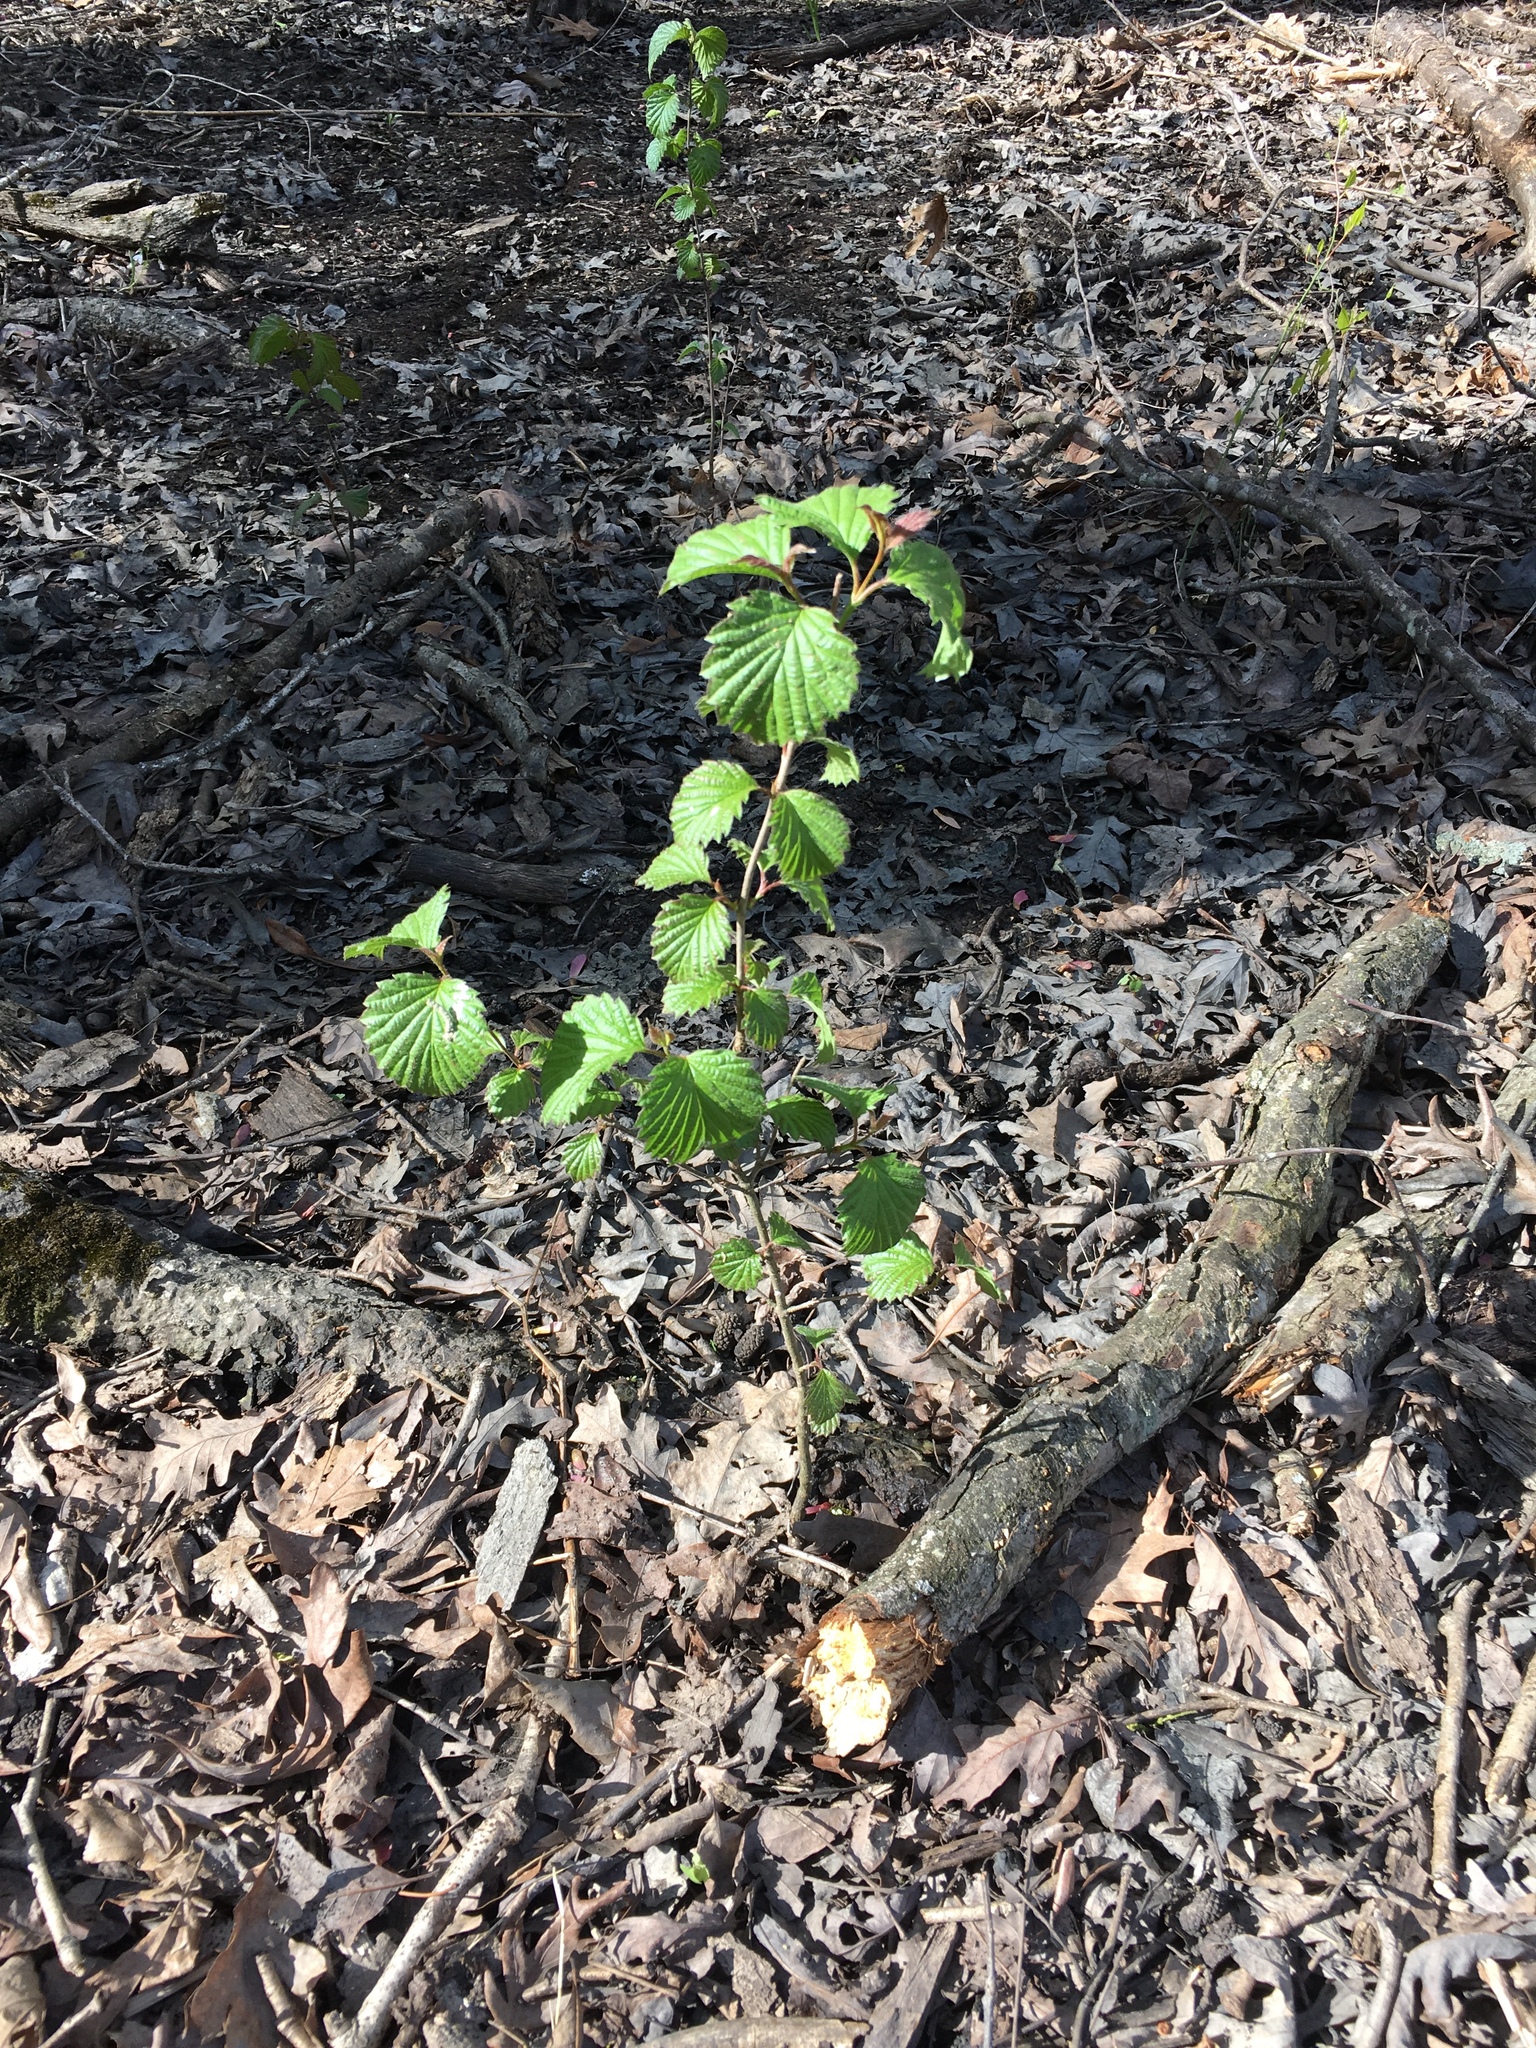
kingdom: Plantae
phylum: Tracheophyta
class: Magnoliopsida
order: Dipsacales
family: Viburnaceae
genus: Viburnum
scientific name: Viburnum dentatum
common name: Arrow-wood
